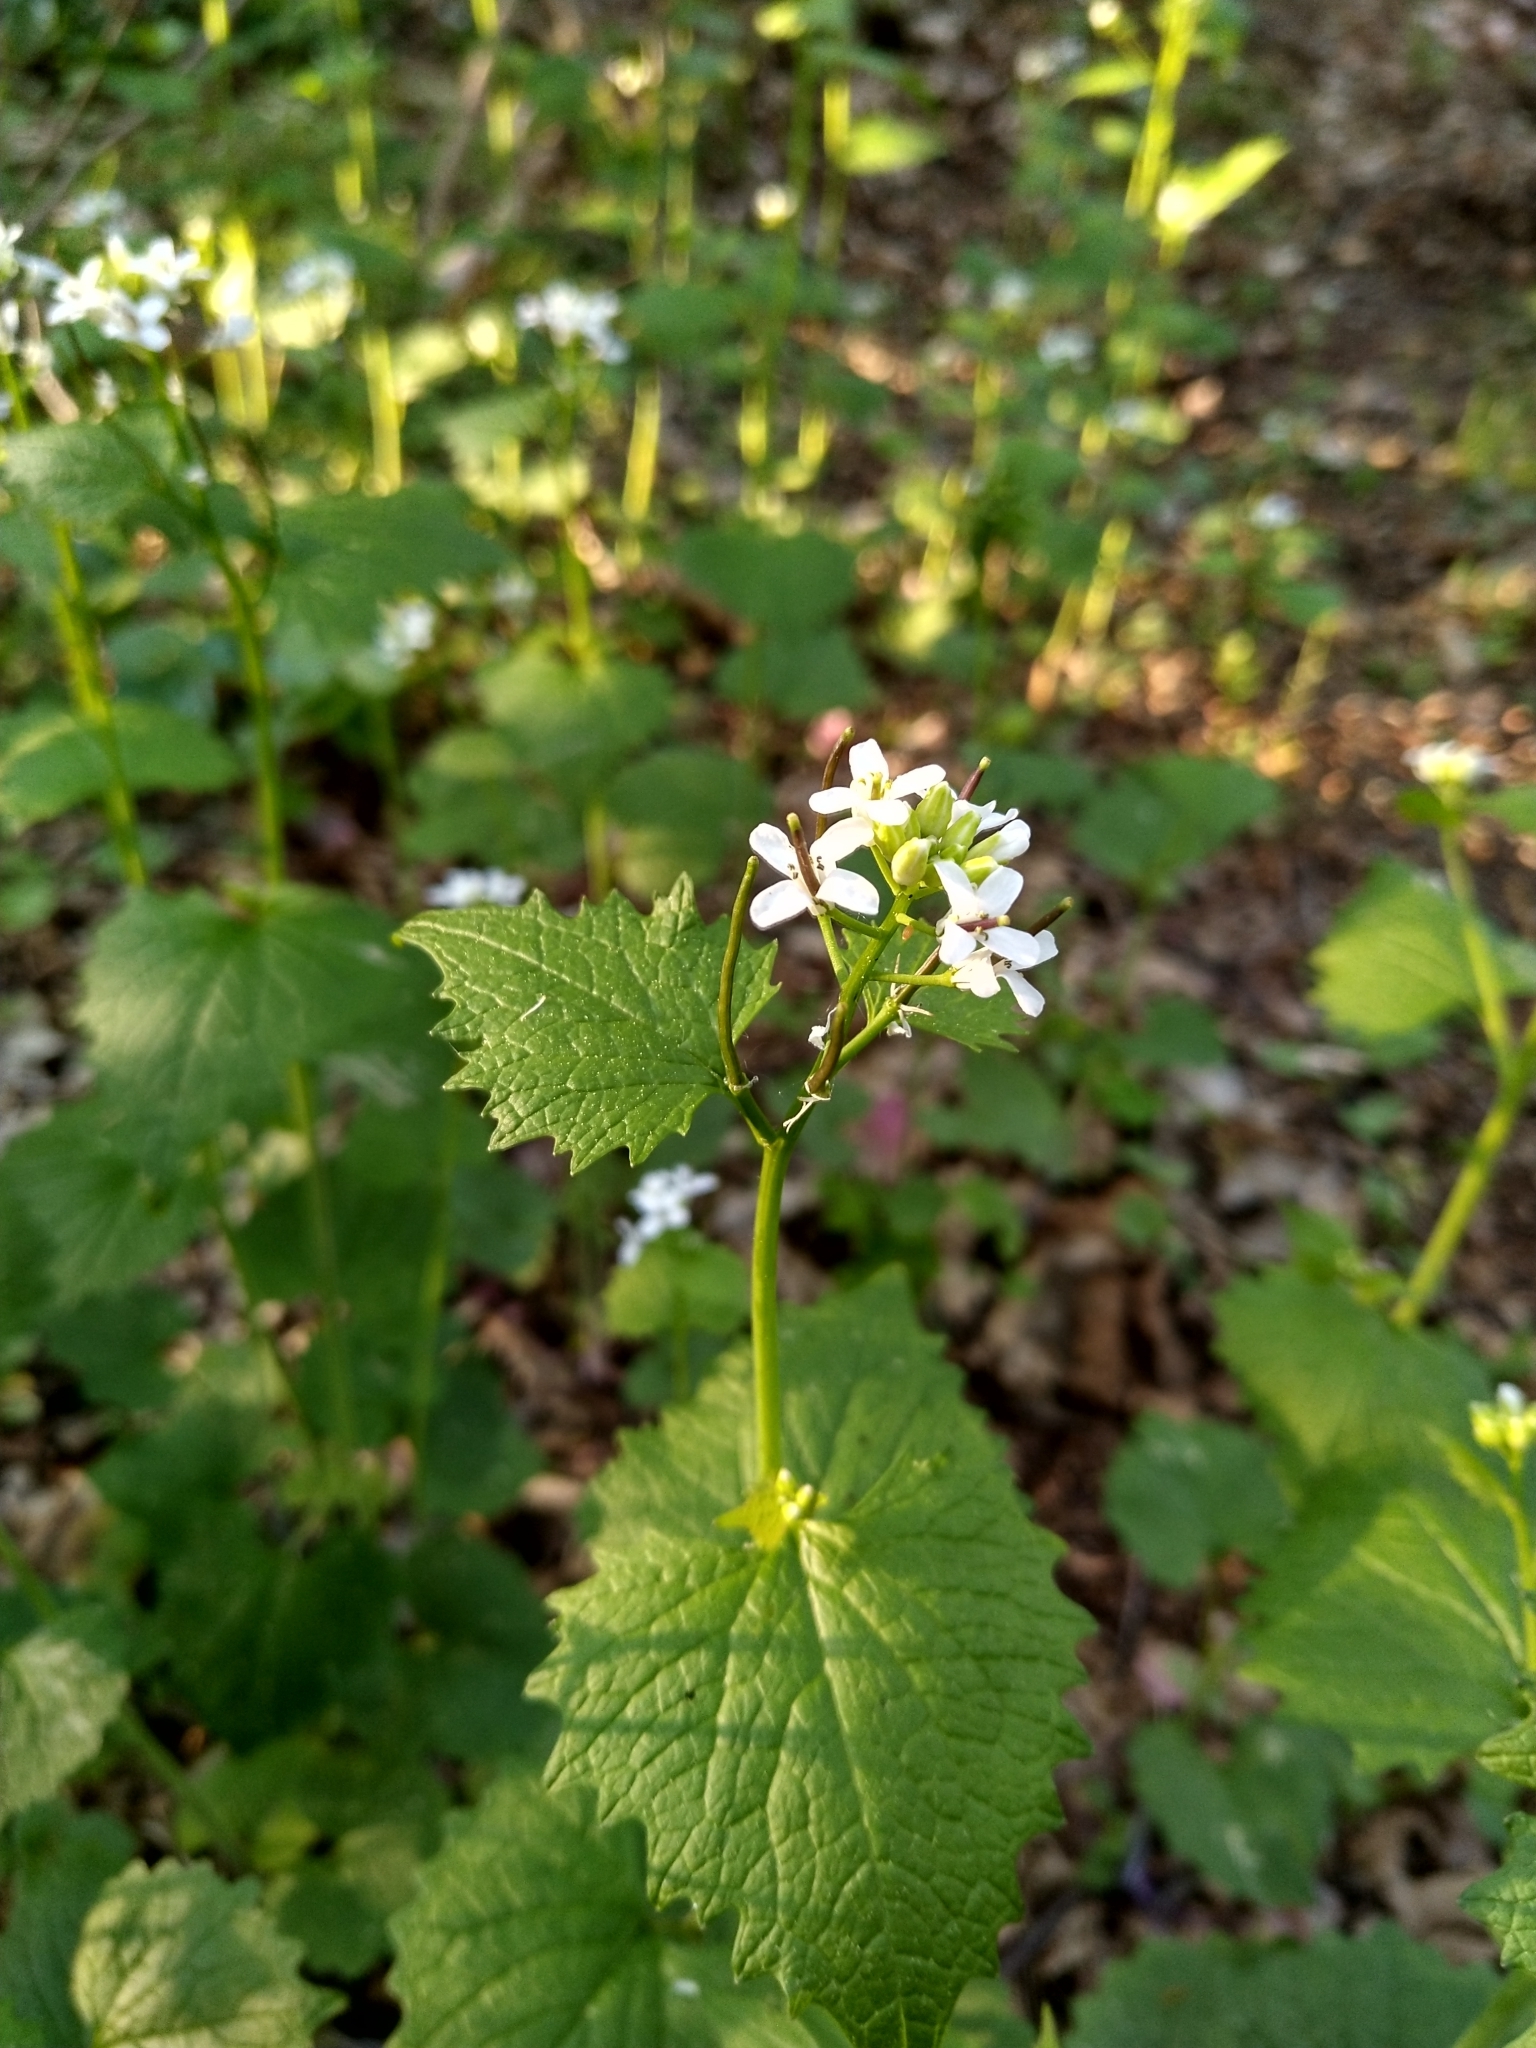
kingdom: Plantae
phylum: Tracheophyta
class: Magnoliopsida
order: Brassicales
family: Brassicaceae
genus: Alliaria
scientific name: Alliaria petiolata
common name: Garlic mustard
